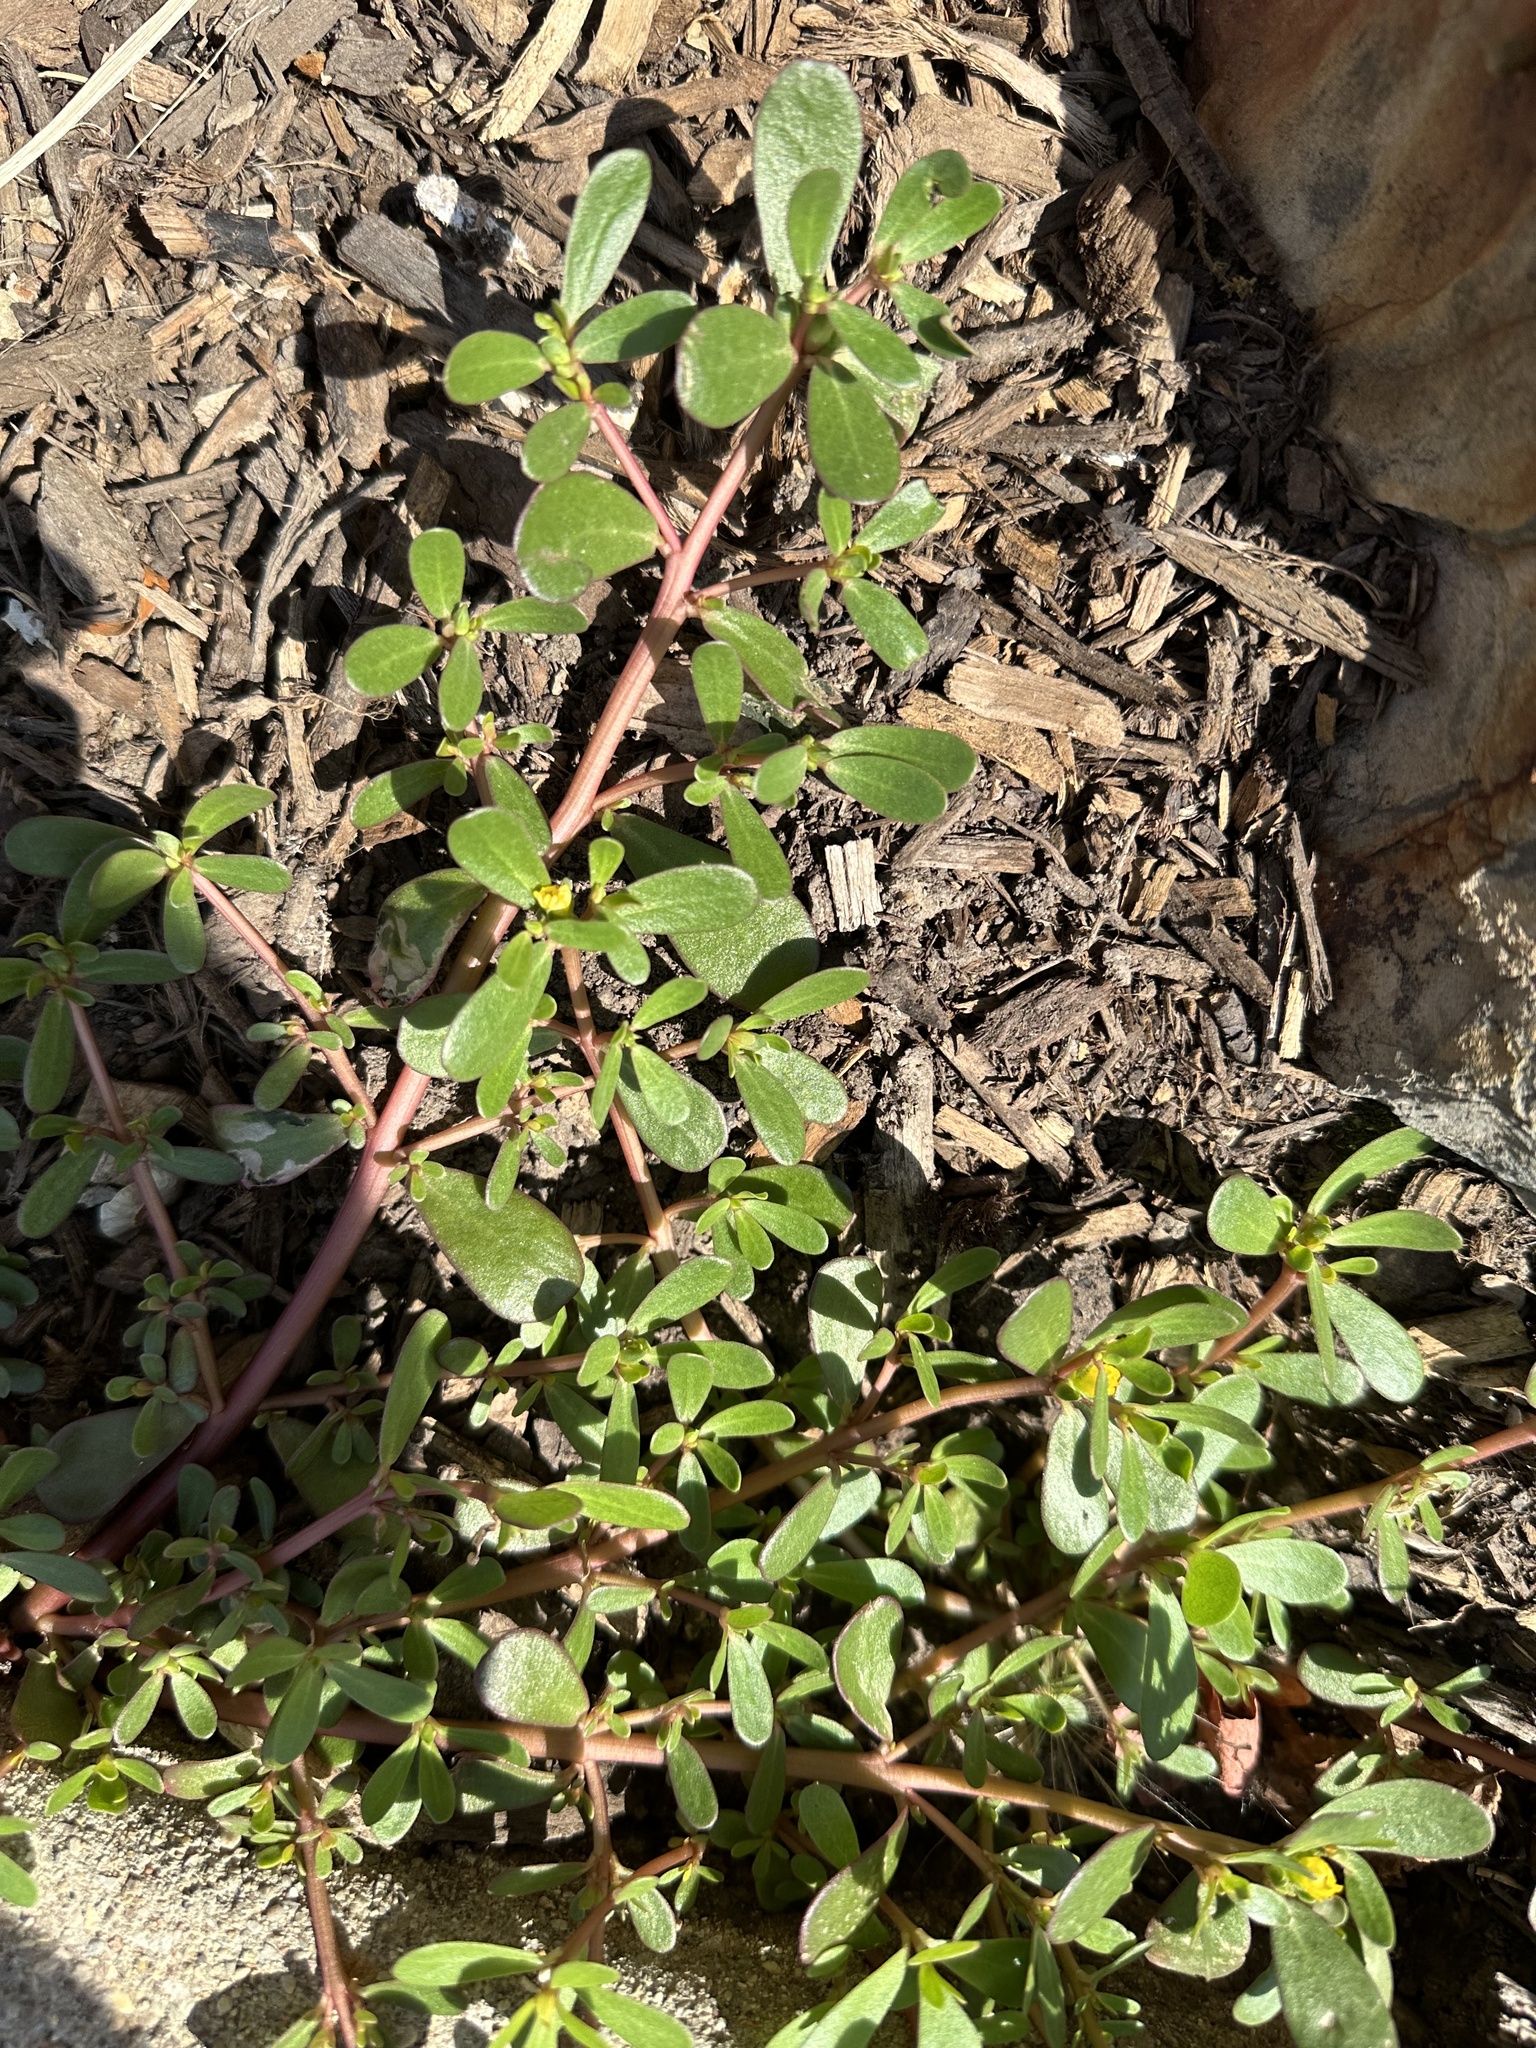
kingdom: Plantae
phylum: Tracheophyta
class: Magnoliopsida
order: Caryophyllales
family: Portulacaceae
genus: Portulaca
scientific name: Portulaca oleracea
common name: Common purslane
